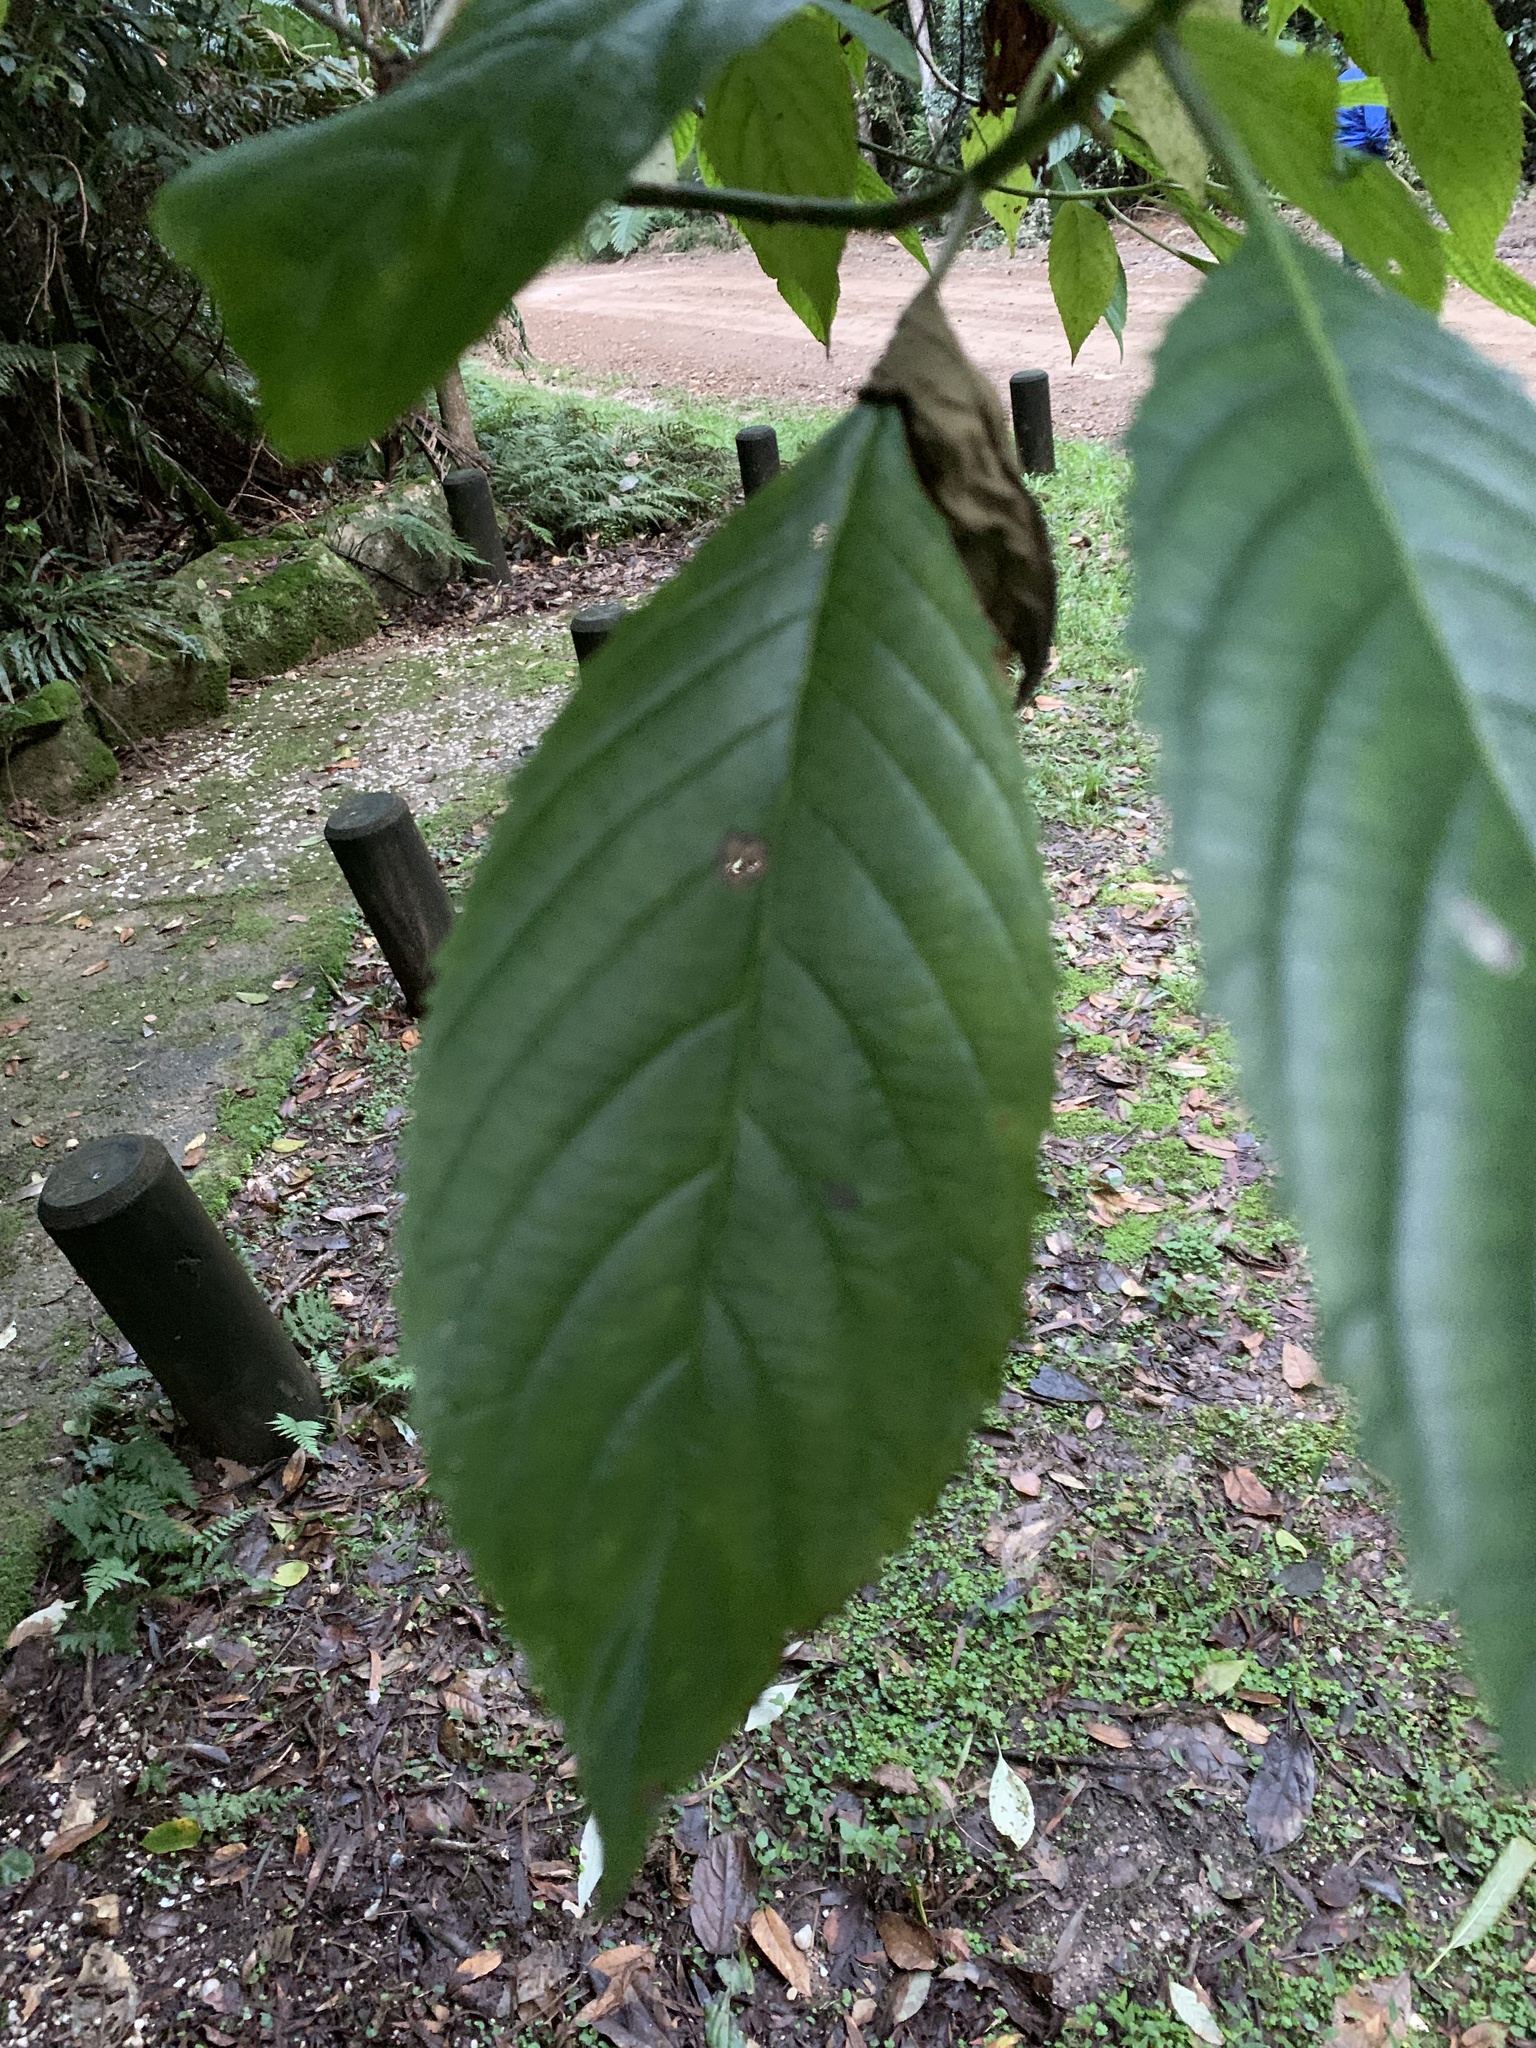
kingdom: Plantae
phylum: Tracheophyta
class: Magnoliopsida
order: Asterales
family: Rousseaceae
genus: Abrophyllum
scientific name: Abrophyllum ornans
